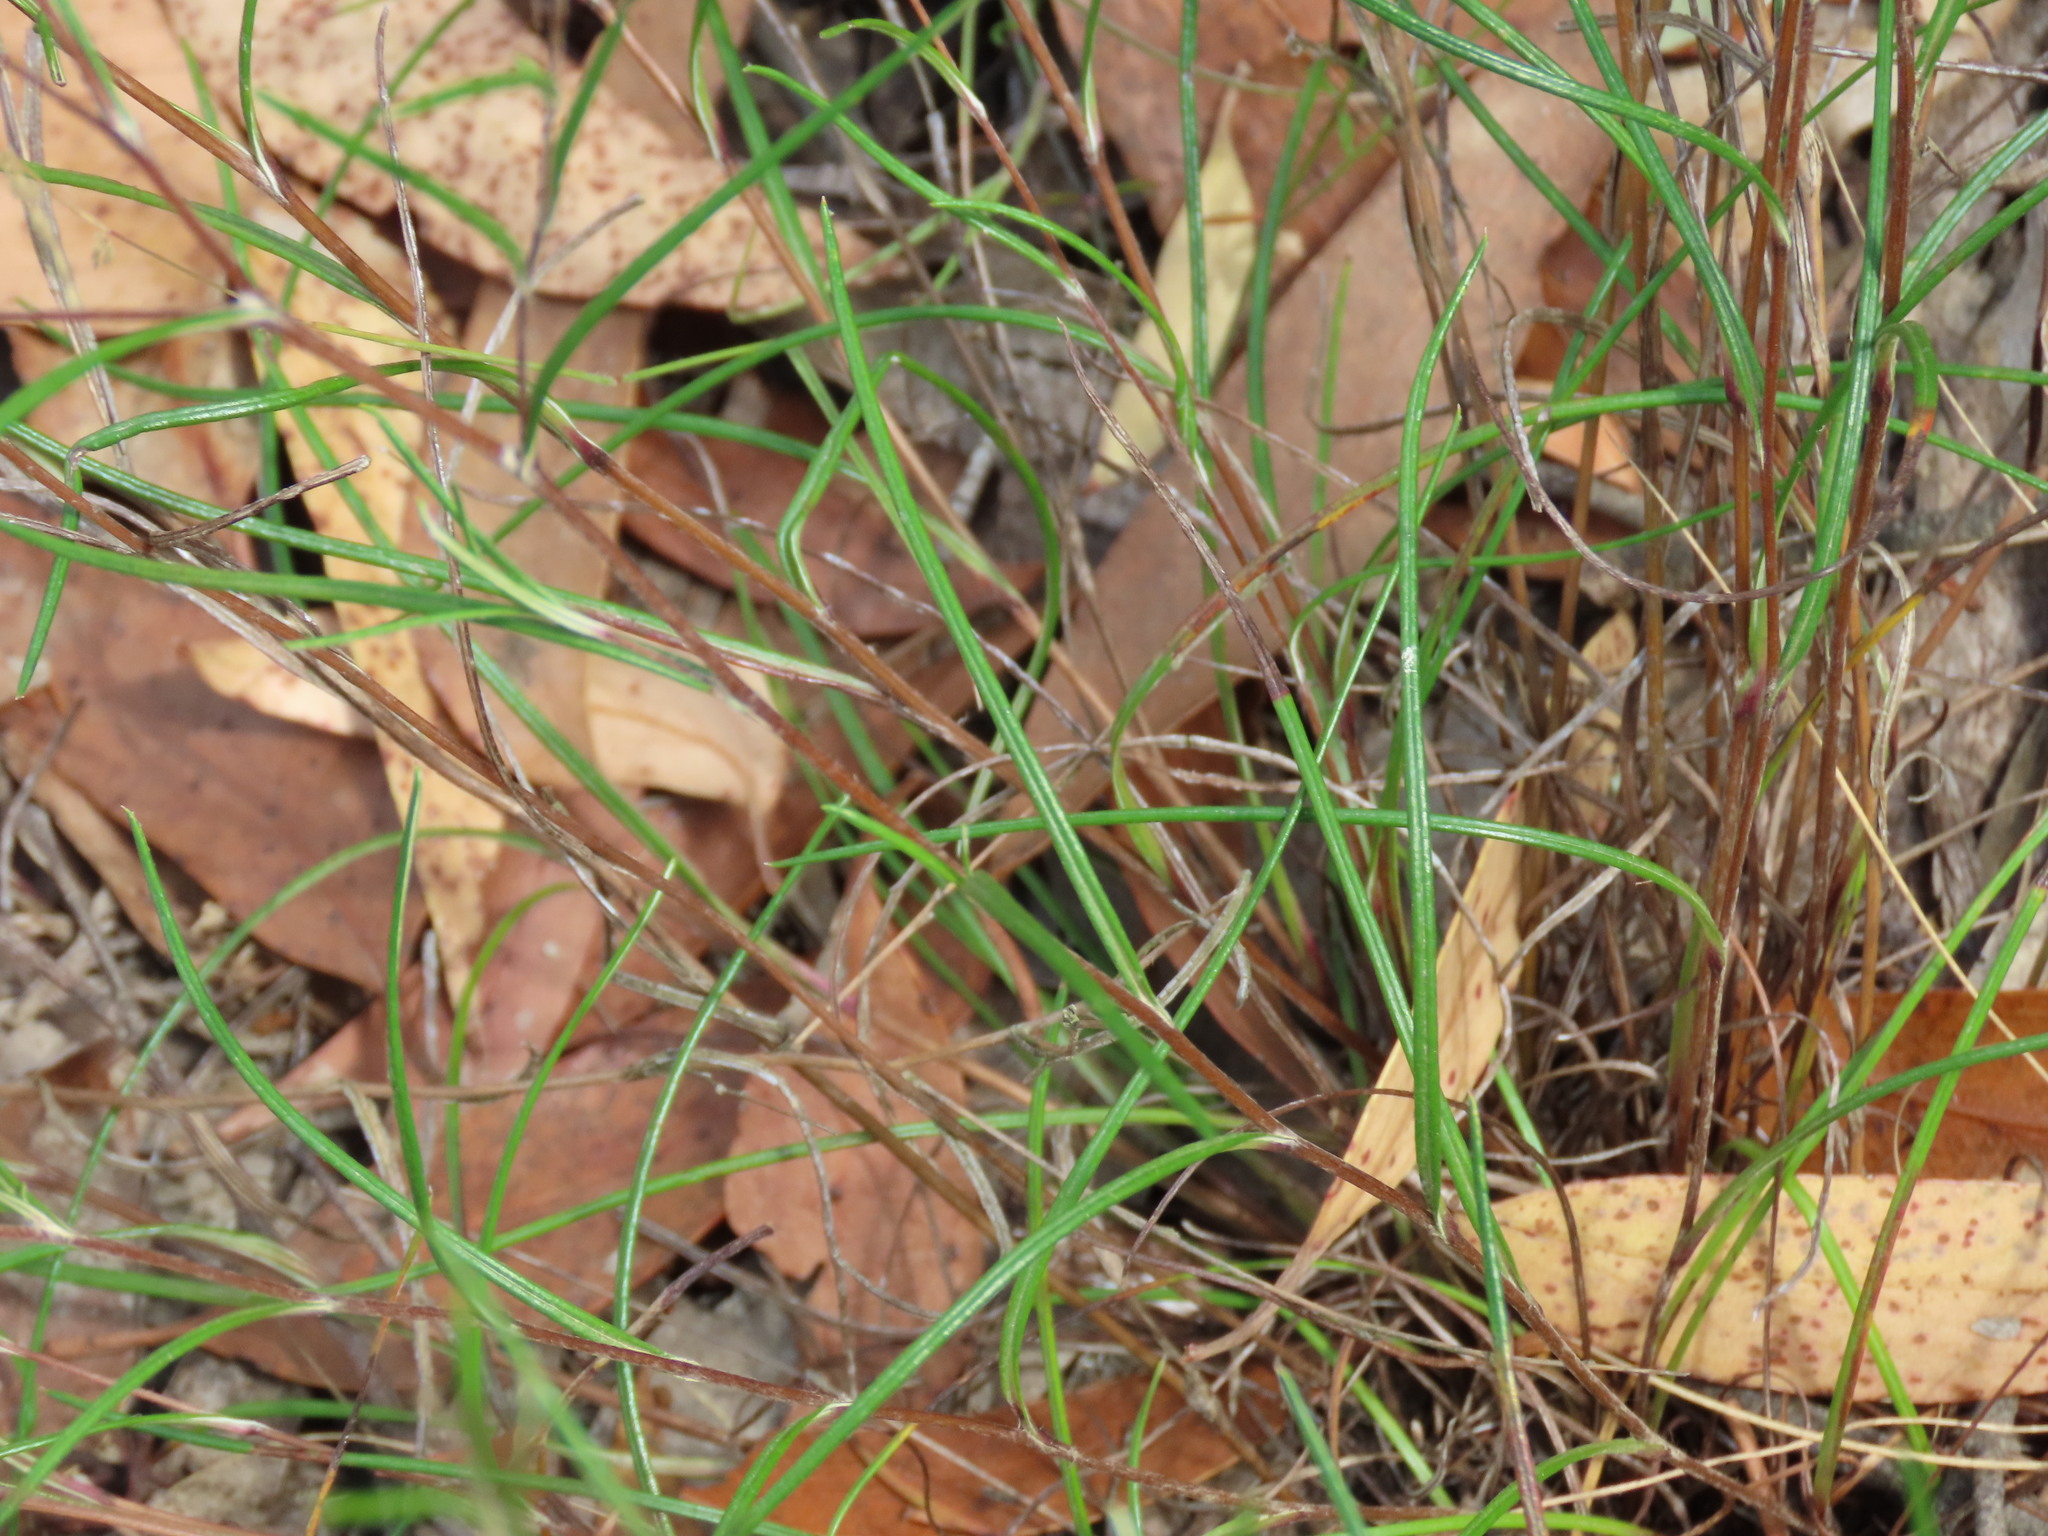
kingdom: Plantae
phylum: Tracheophyta
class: Magnoliopsida
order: Asterales
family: Asteraceae
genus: Leptorhynchos
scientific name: Leptorhynchos tenuifolius
